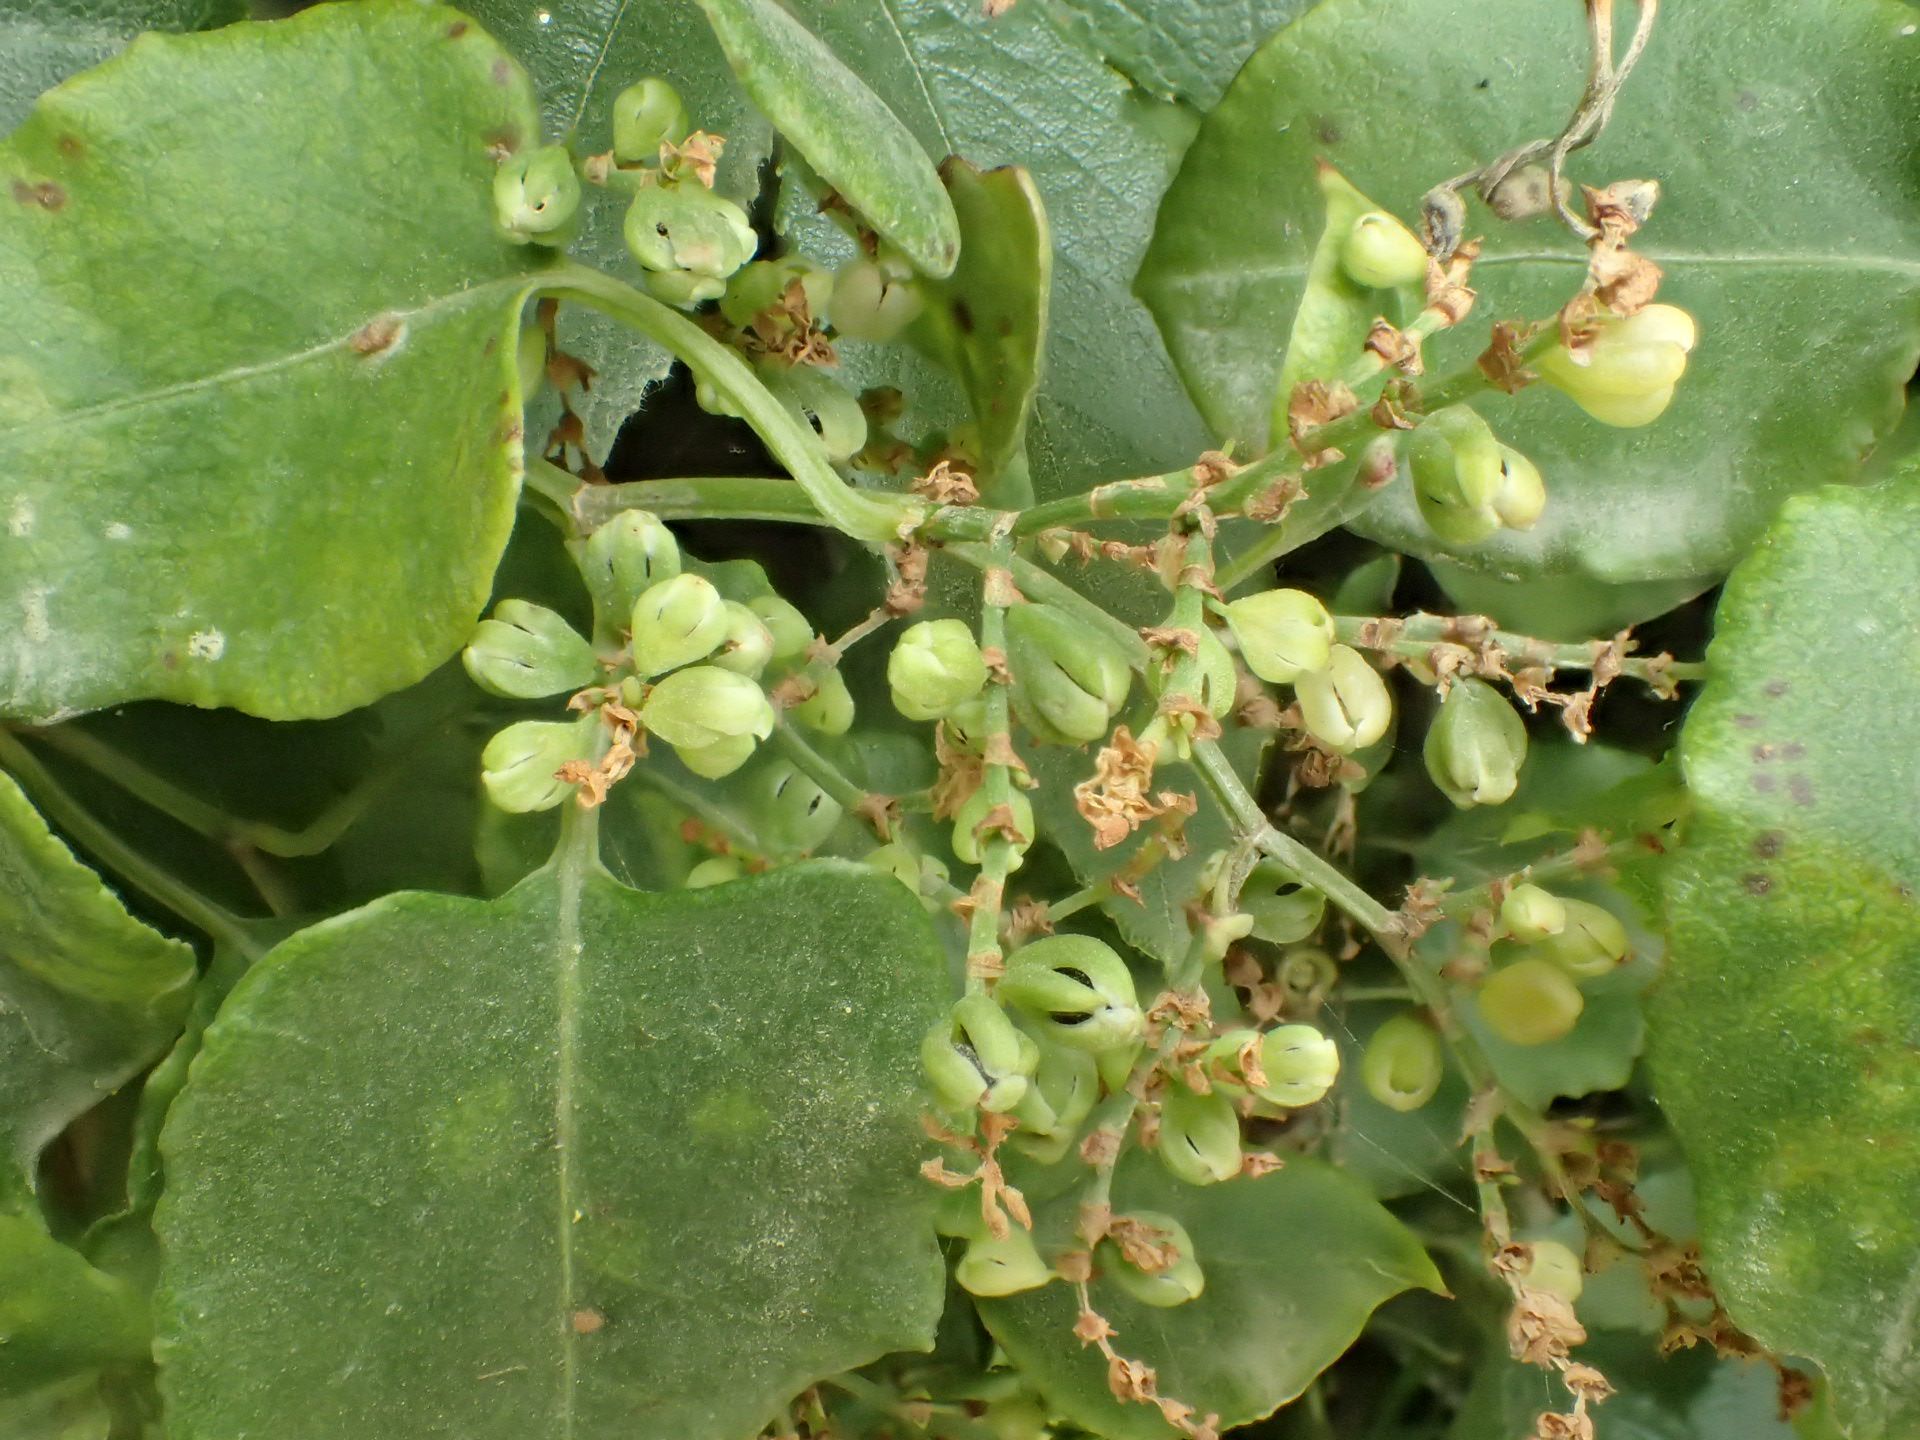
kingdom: Plantae
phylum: Tracheophyta
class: Magnoliopsida
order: Caryophyllales
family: Polygonaceae
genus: Muehlenbeckia
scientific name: Muehlenbeckia australis
